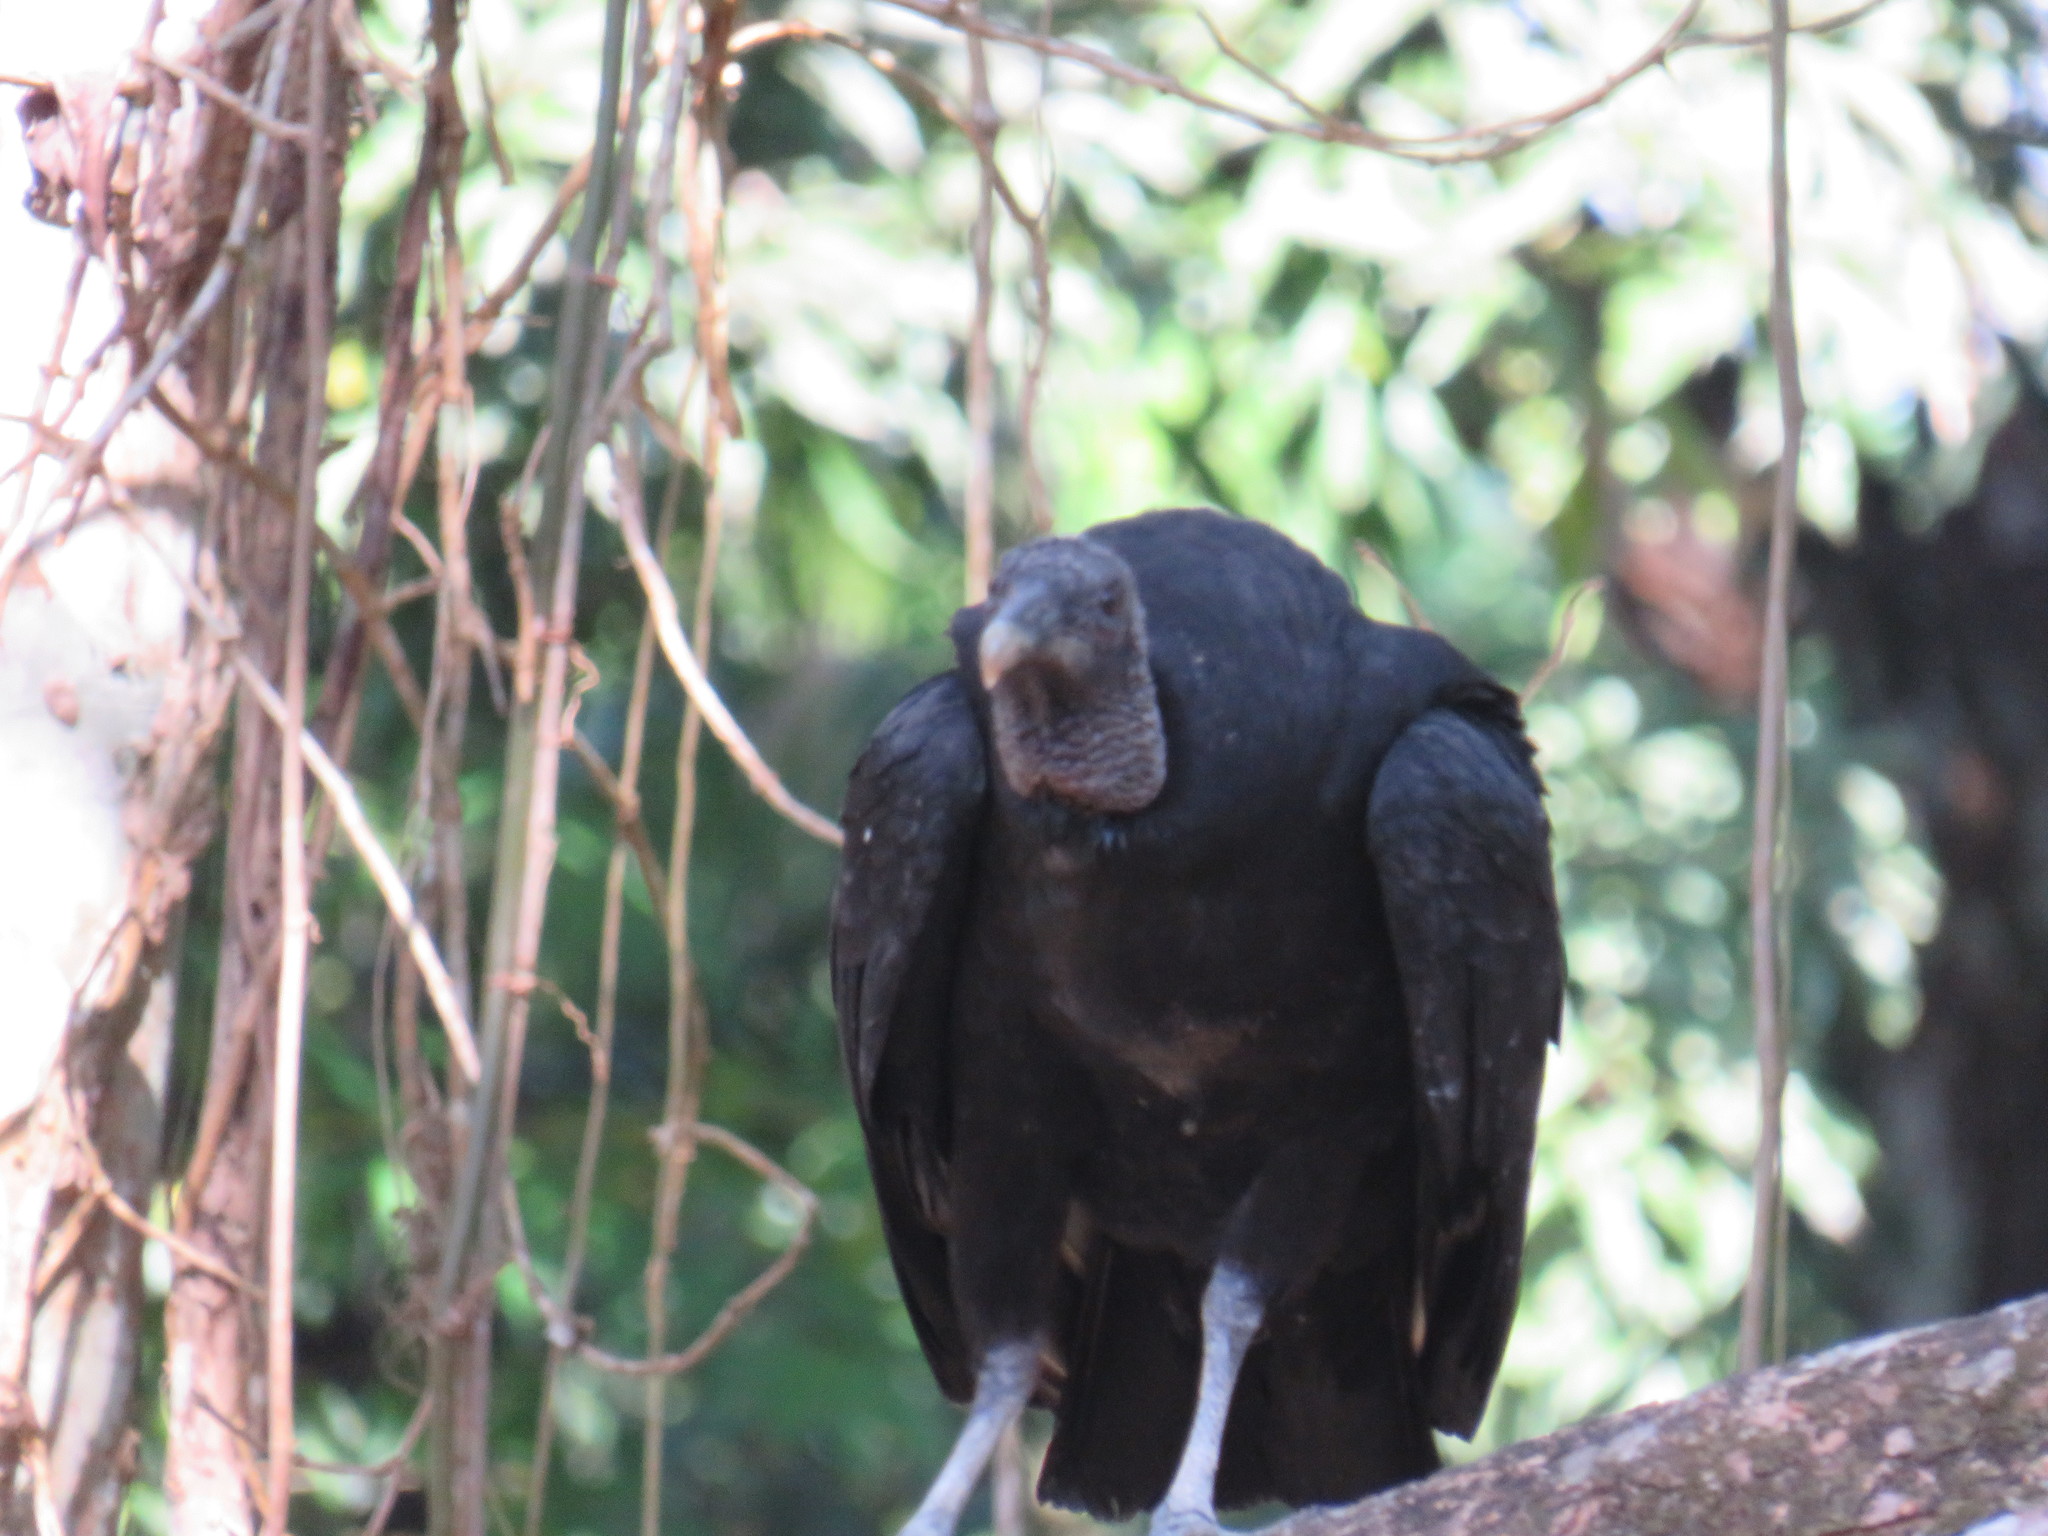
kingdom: Animalia
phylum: Chordata
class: Aves
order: Accipitriformes
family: Cathartidae
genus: Coragyps
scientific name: Coragyps atratus
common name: Black vulture
